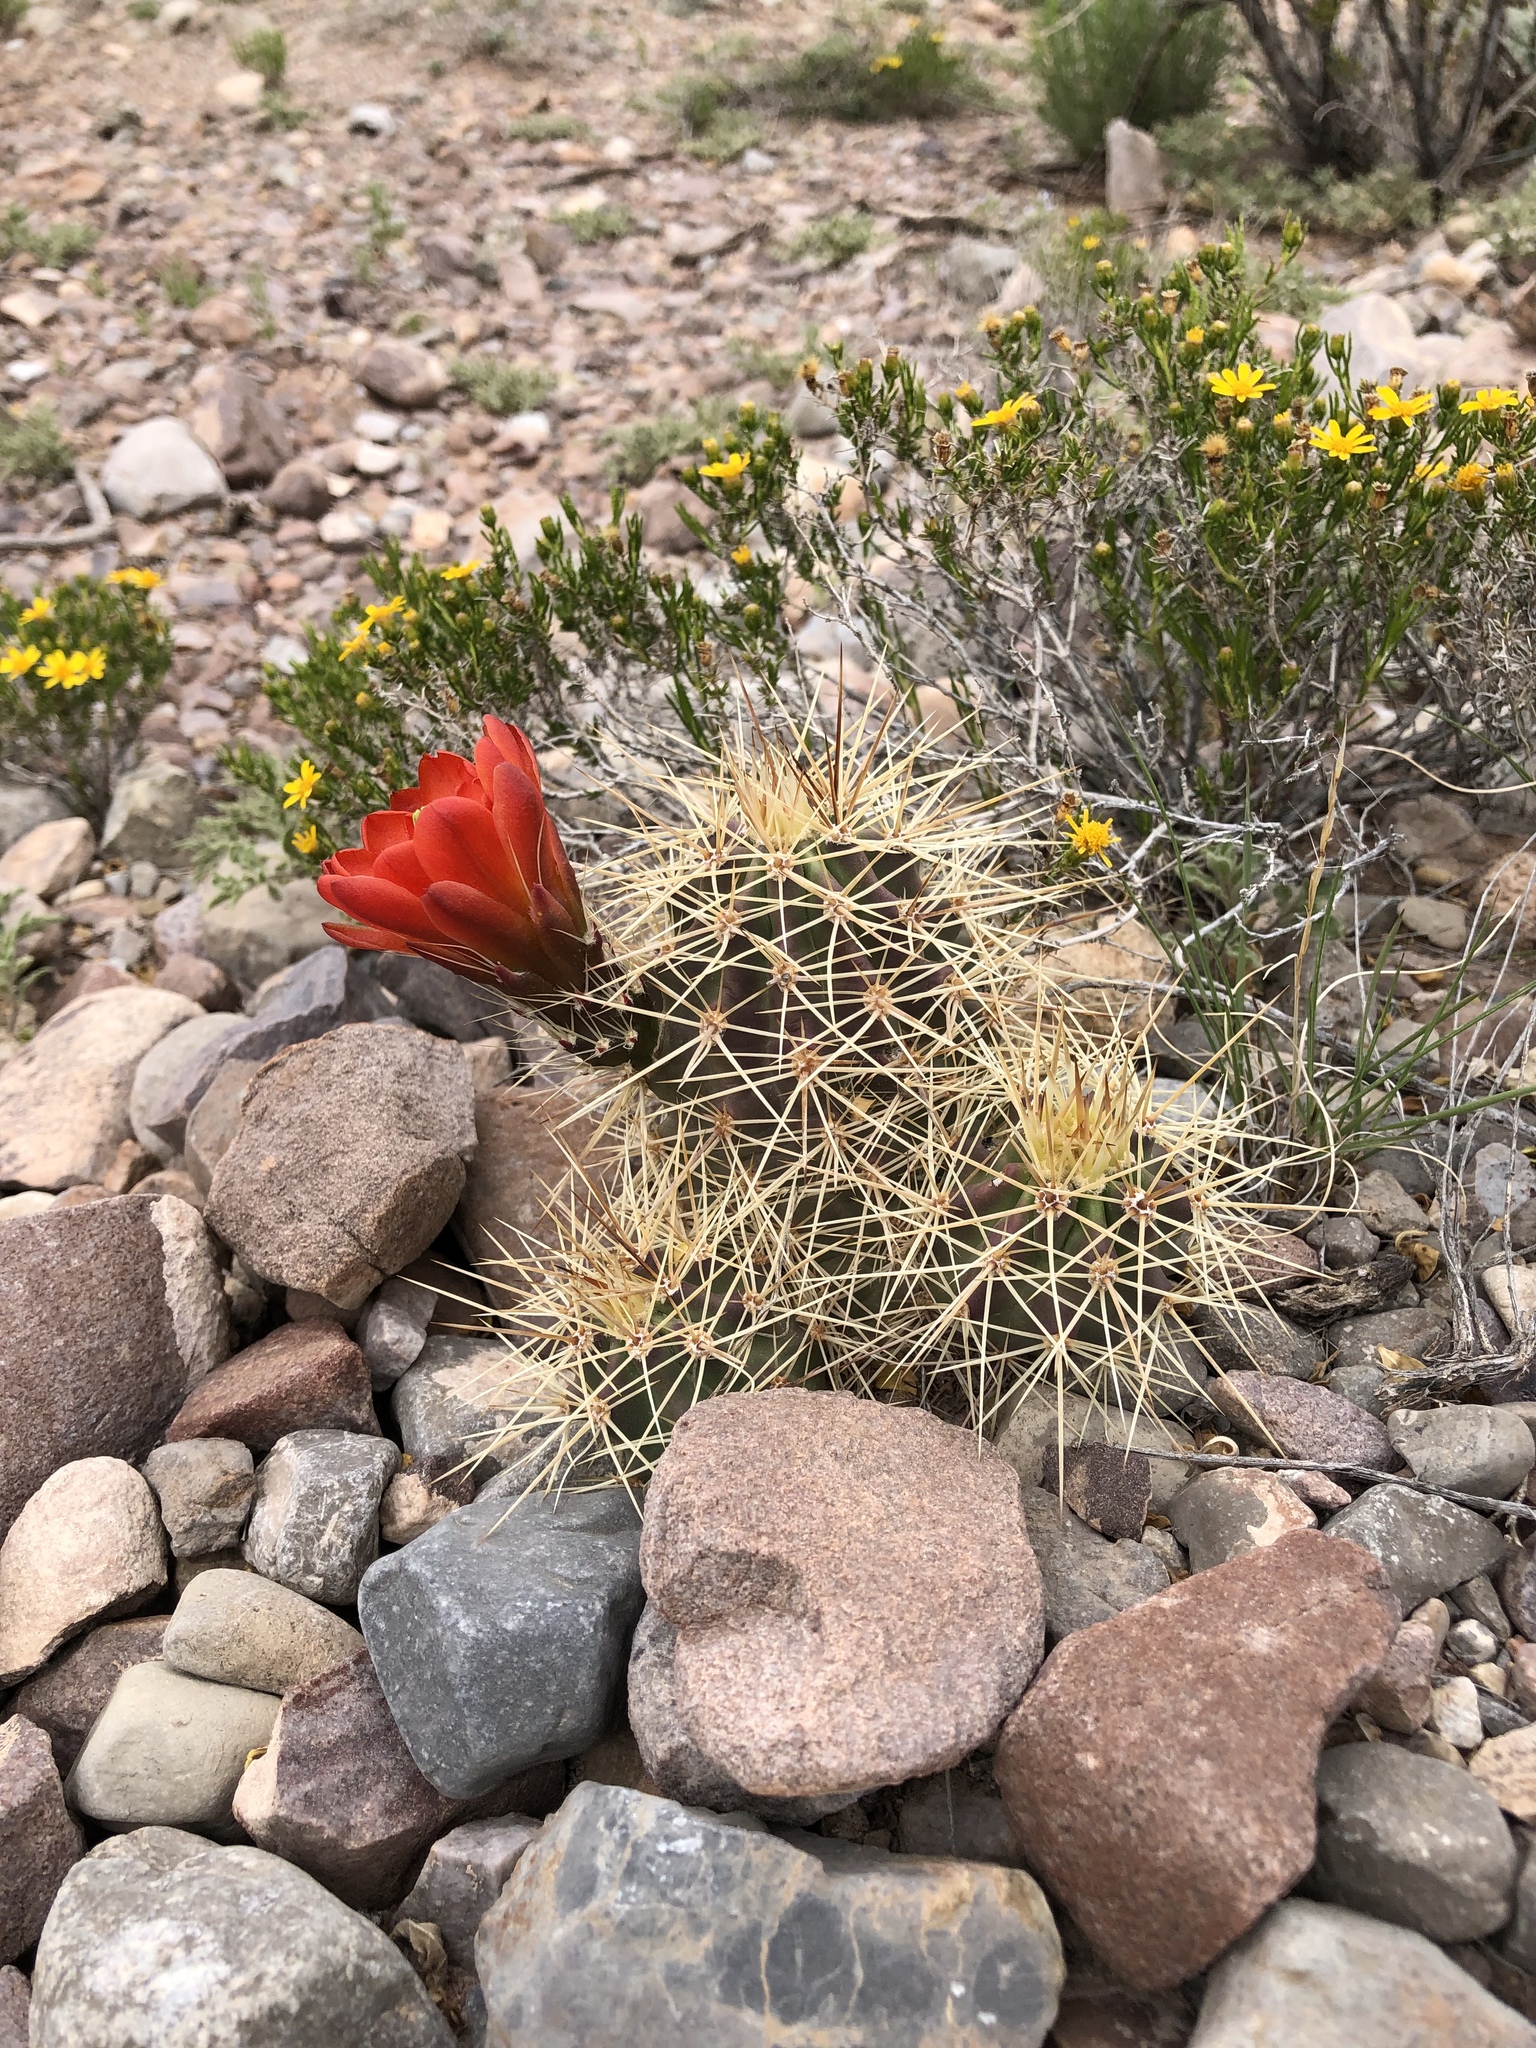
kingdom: Plantae
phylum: Tracheophyta
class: Magnoliopsida
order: Caryophyllales
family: Cactaceae
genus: Echinocereus
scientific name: Echinocereus coccineus
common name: Scarlet hedgehog cactus
